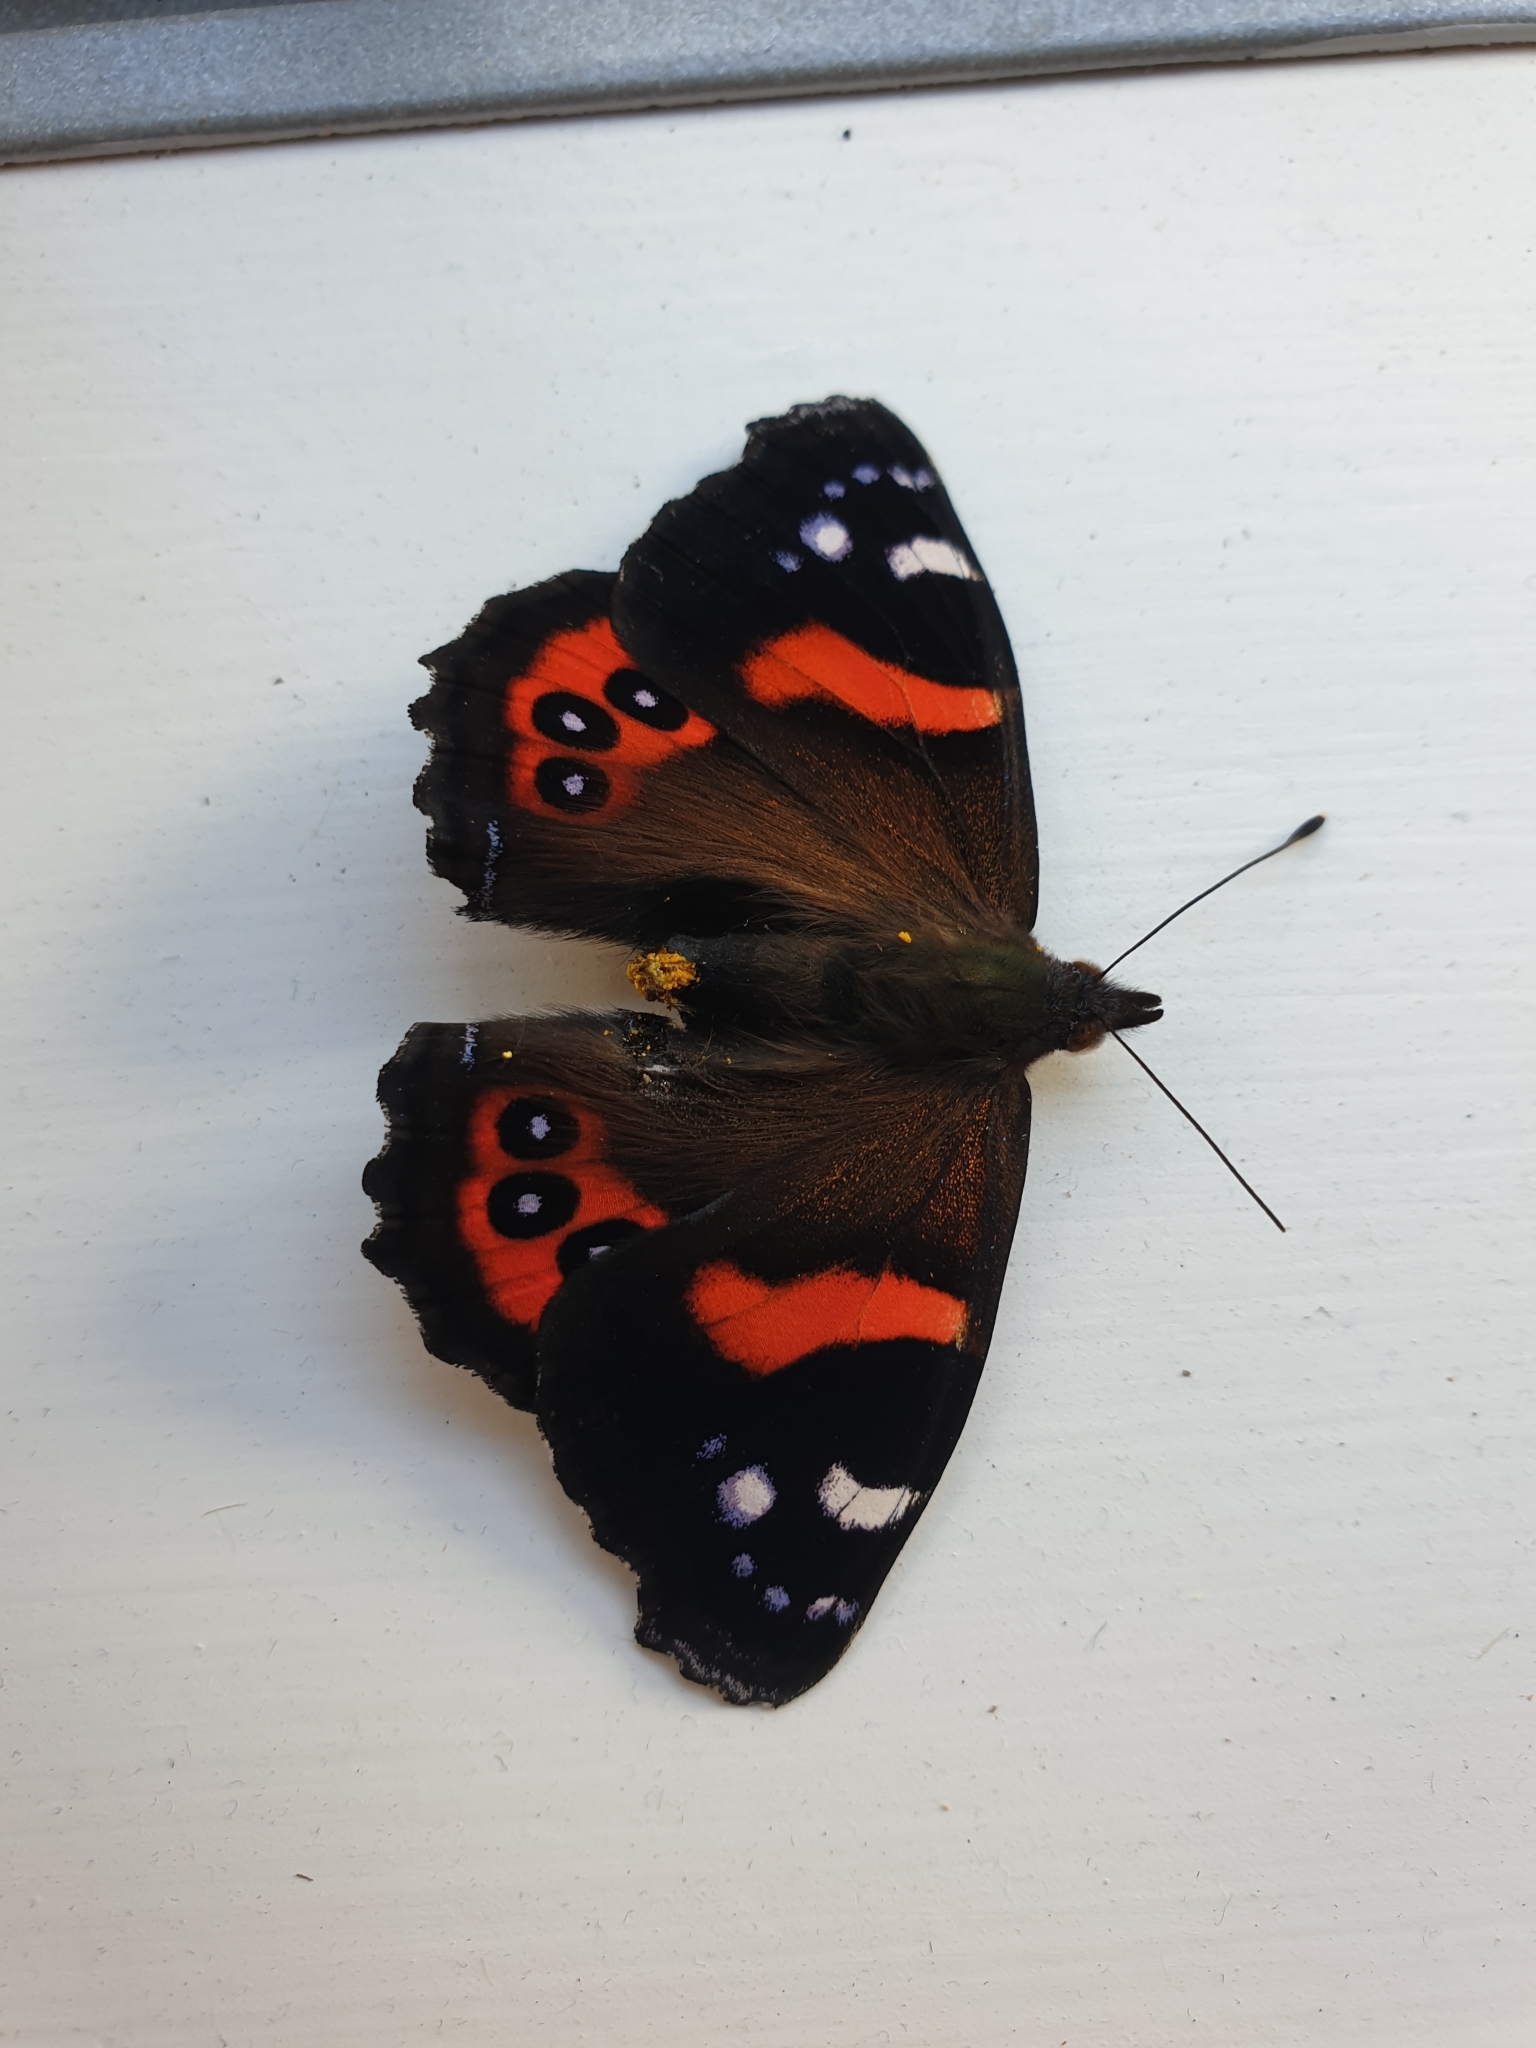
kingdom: Animalia
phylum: Arthropoda
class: Insecta
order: Lepidoptera
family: Nymphalidae
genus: Vanessa
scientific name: Vanessa gonerilla
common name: New zealand red admiral
